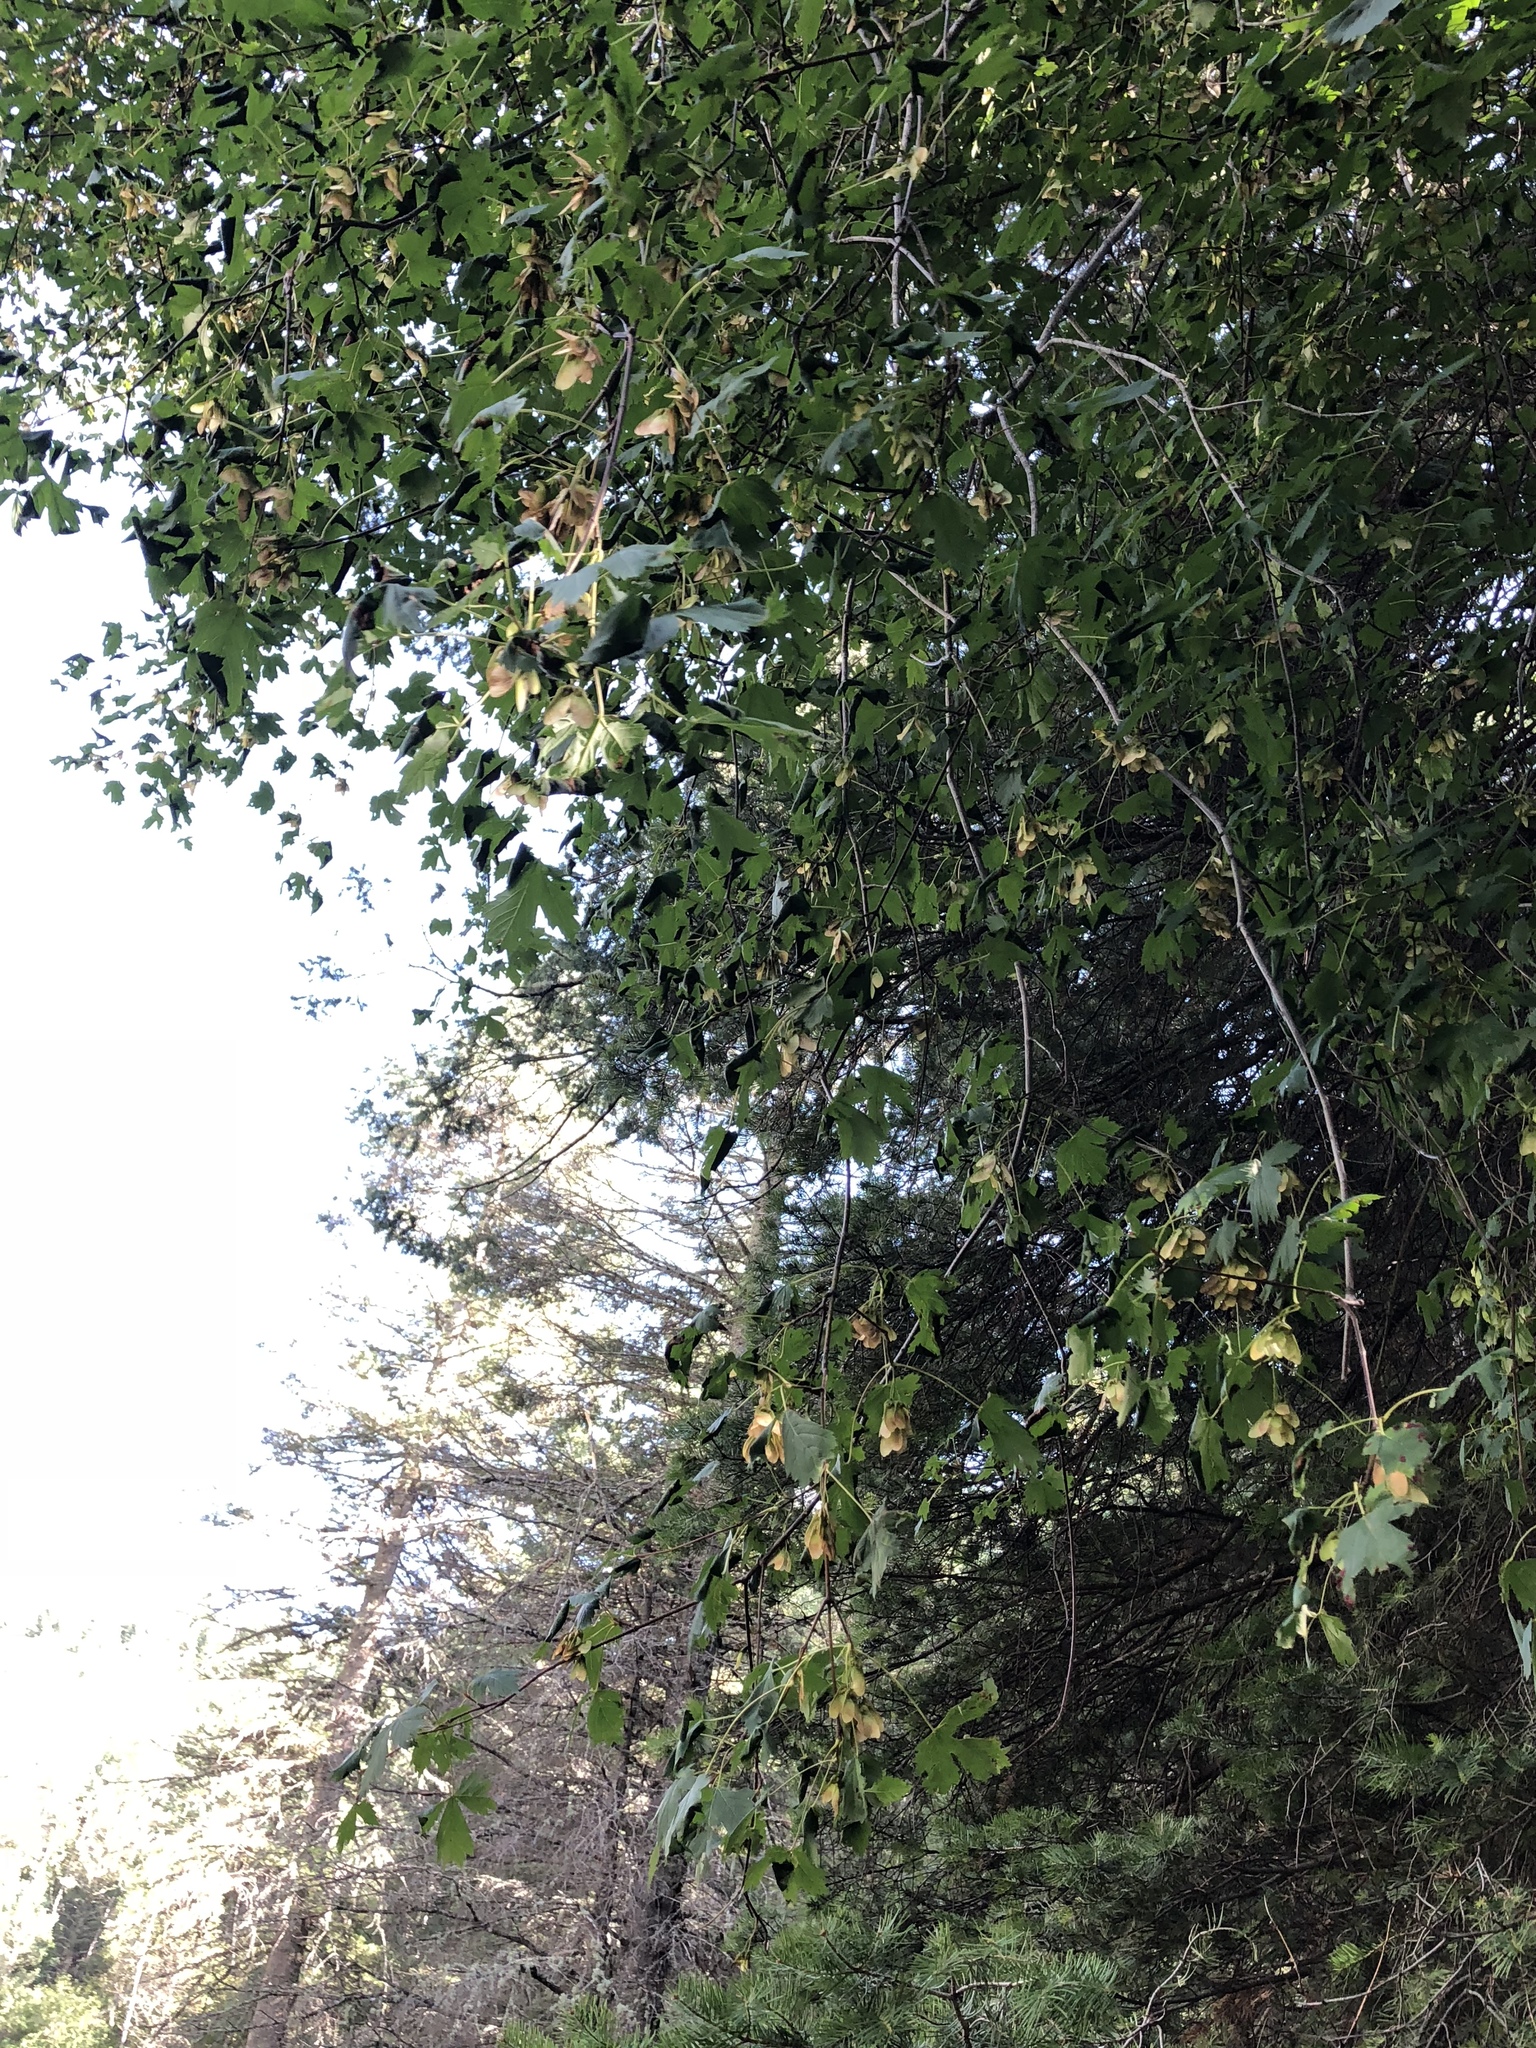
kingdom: Plantae
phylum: Tracheophyta
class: Magnoliopsida
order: Sapindales
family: Sapindaceae
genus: Acer
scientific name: Acer glabrum
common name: Rocky mountain maple
